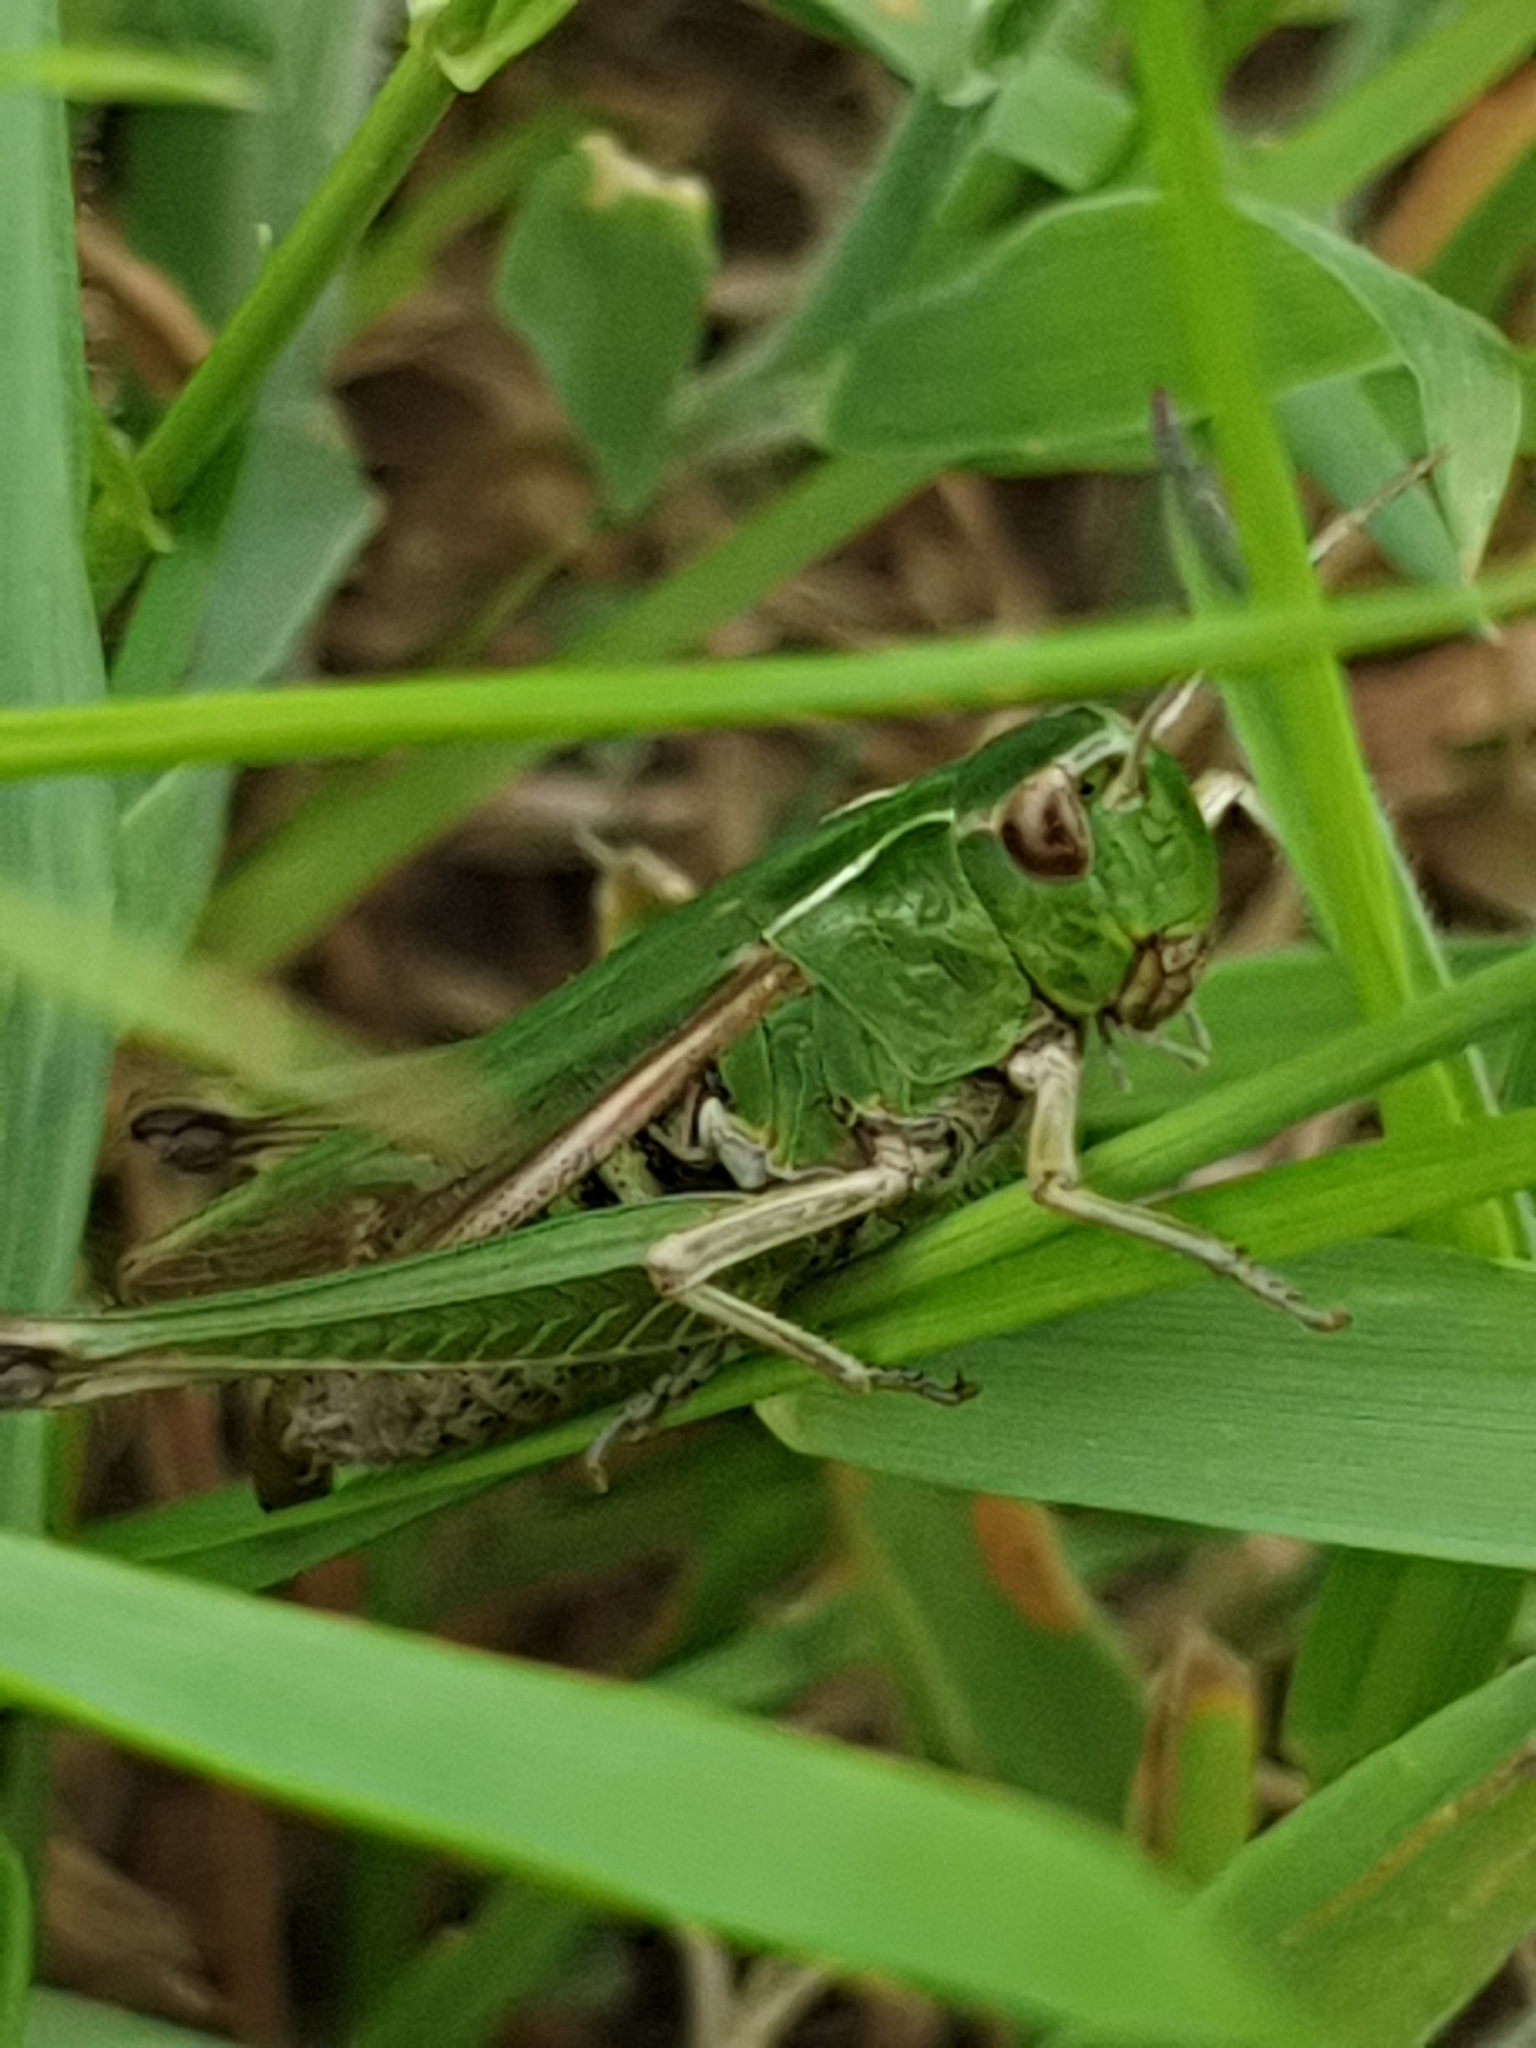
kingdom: Animalia
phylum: Arthropoda
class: Insecta
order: Orthoptera
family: Acrididae
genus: Omocestus
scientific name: Omocestus viridulus
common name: Common green grasshopper
